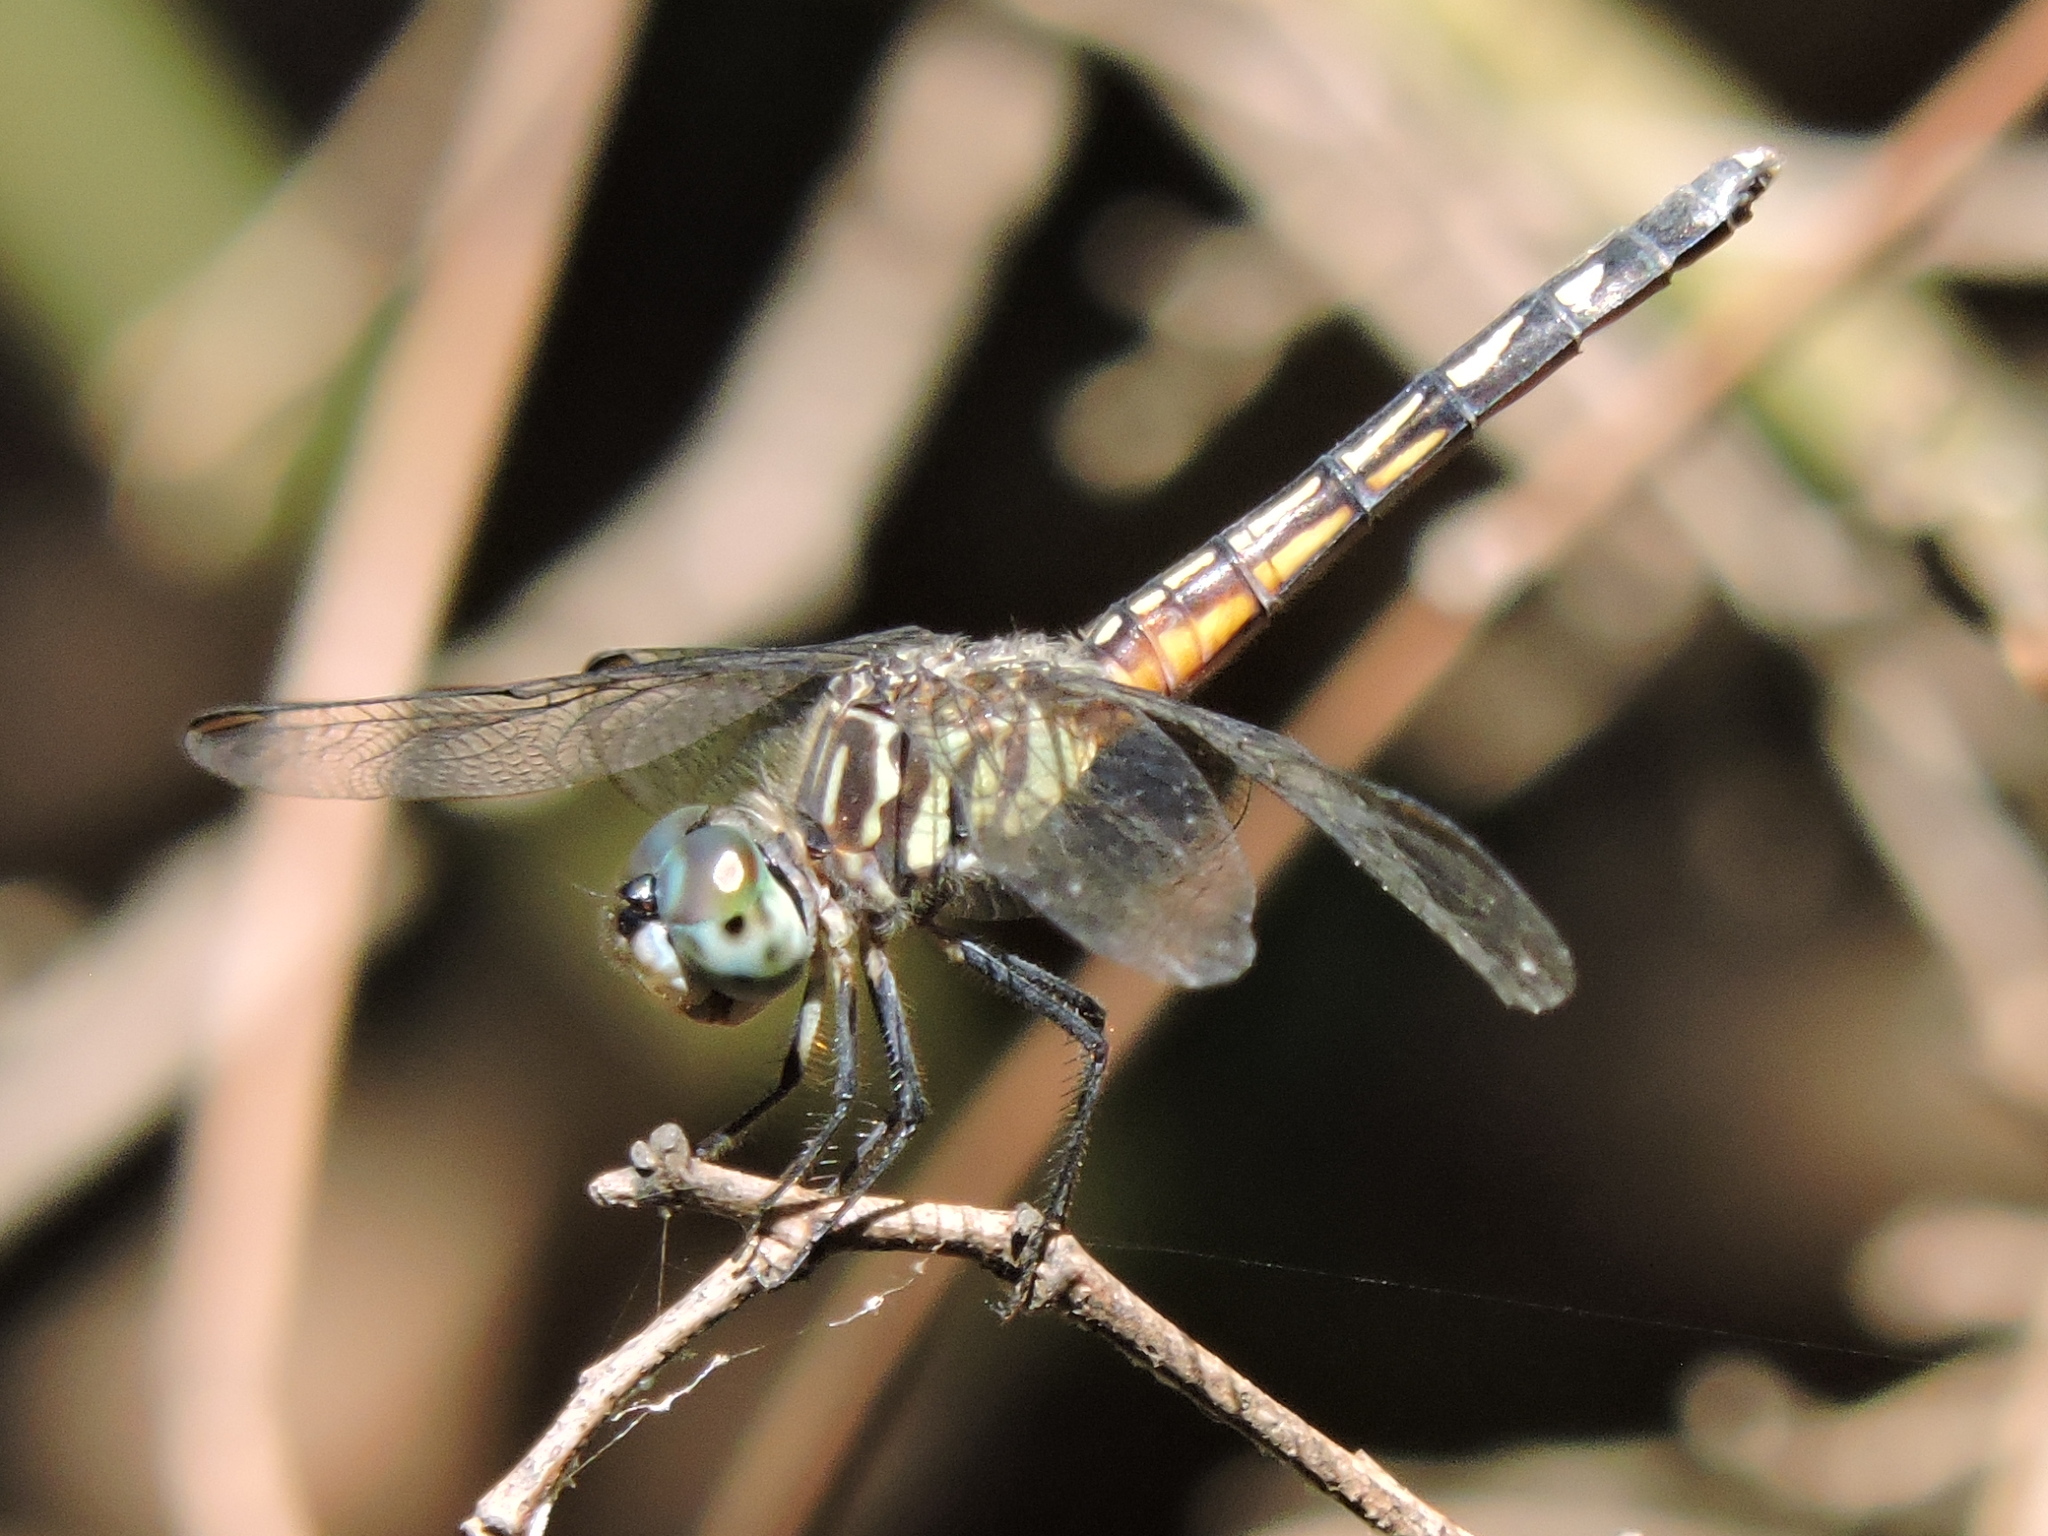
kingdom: Animalia
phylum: Arthropoda
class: Insecta
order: Odonata
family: Libellulidae
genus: Pachydiplax
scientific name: Pachydiplax longipennis
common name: Blue dasher
